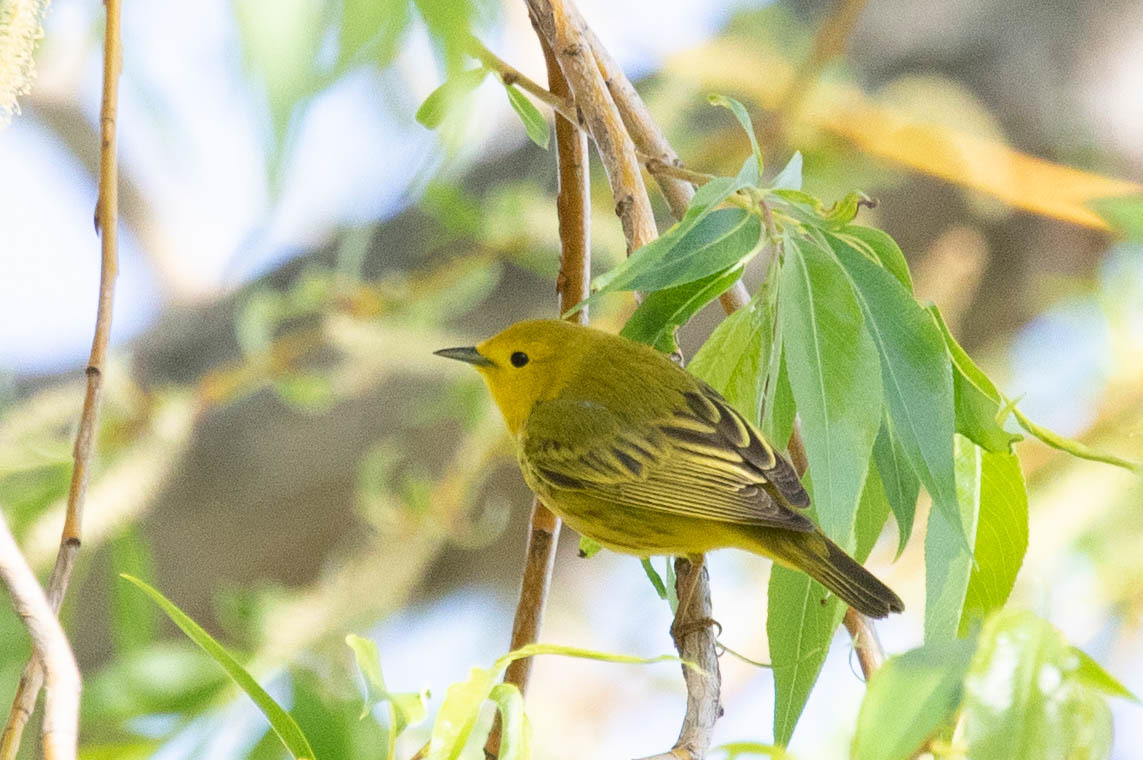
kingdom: Animalia
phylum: Chordata
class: Aves
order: Passeriformes
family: Parulidae
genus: Setophaga
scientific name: Setophaga petechia
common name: Yellow warbler
